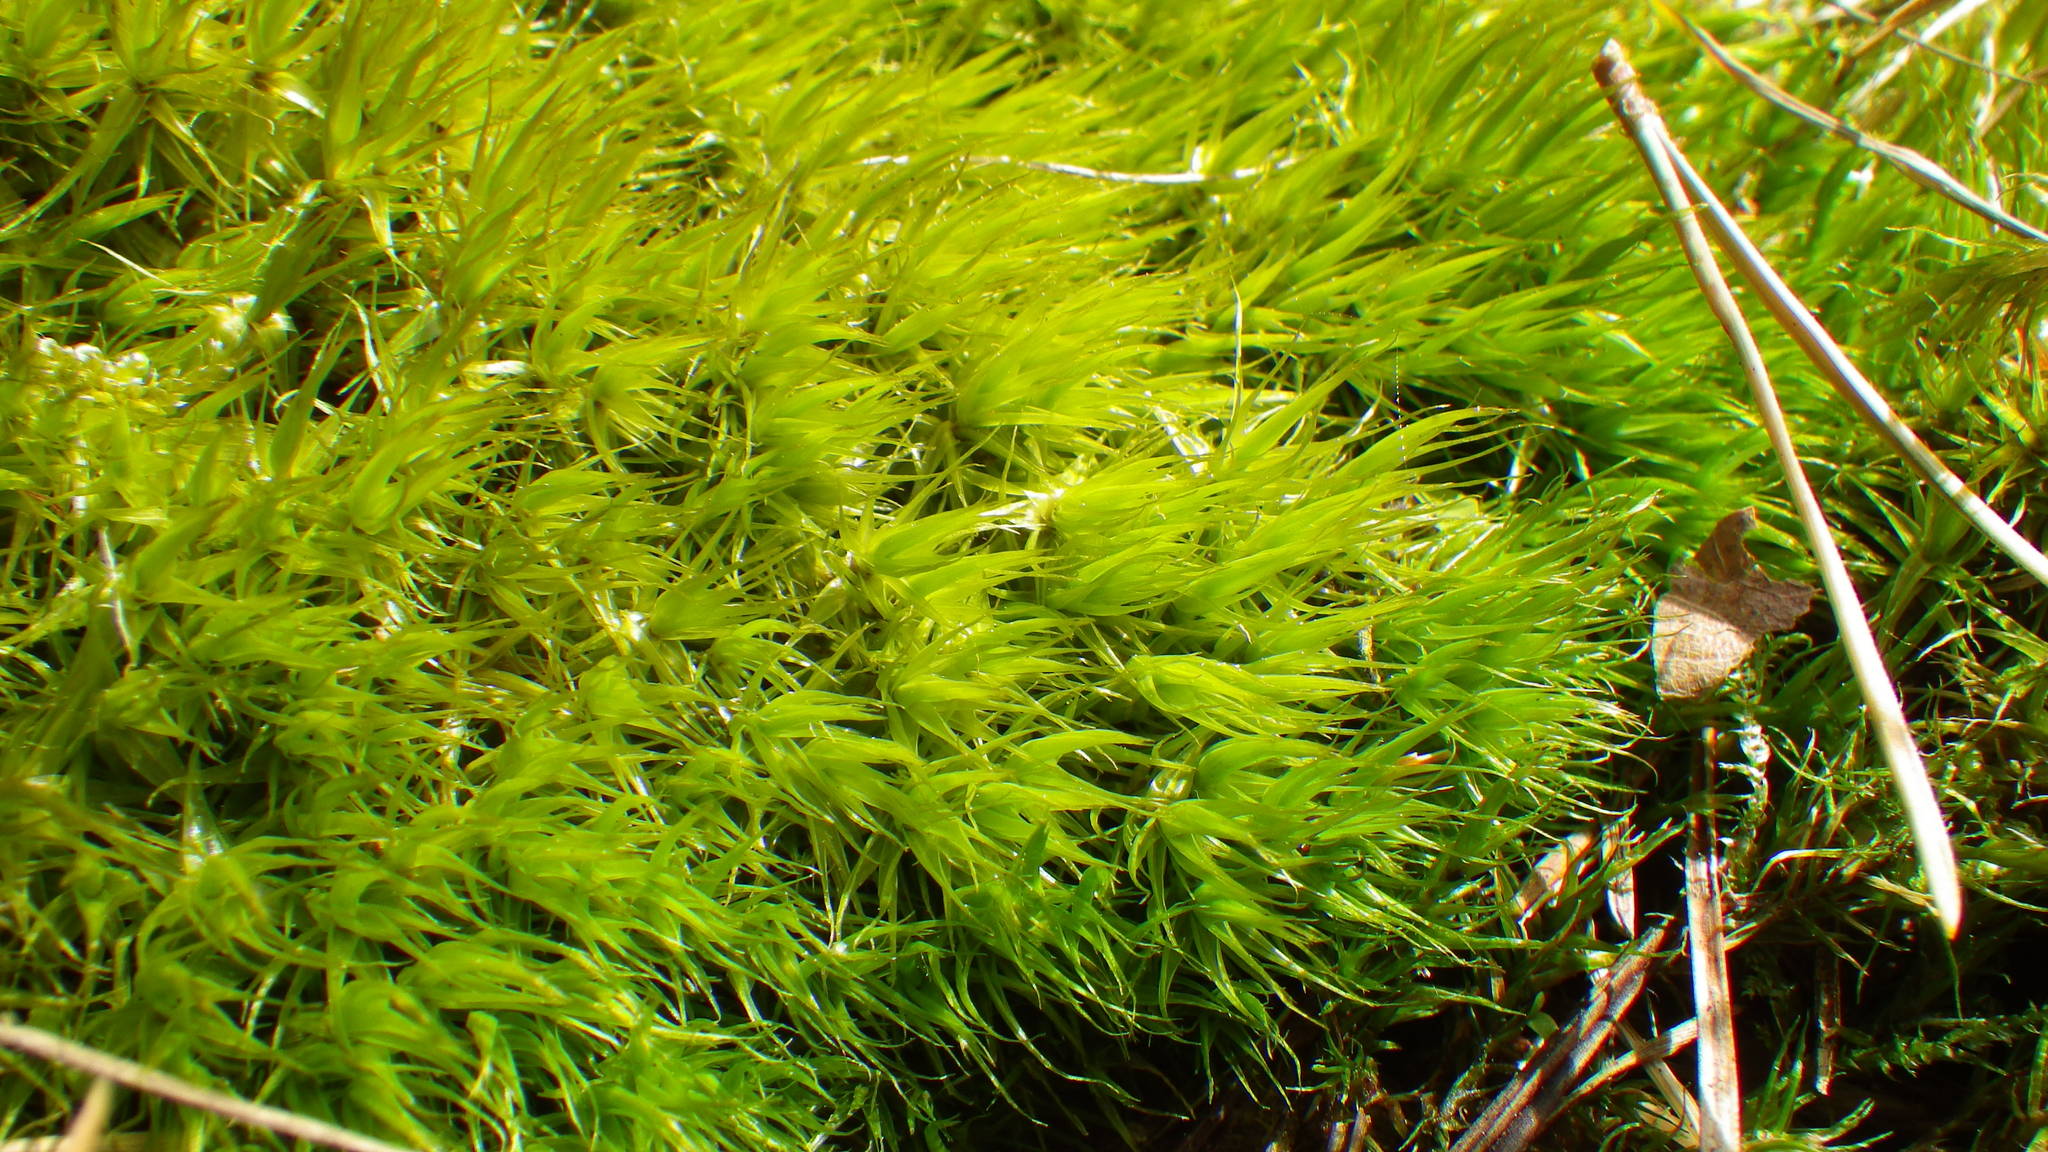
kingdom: Plantae
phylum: Bryophyta
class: Bryopsida
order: Dicranales
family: Dicranaceae
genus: Dicranum
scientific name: Dicranum scoparium
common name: Broom fork-moss
